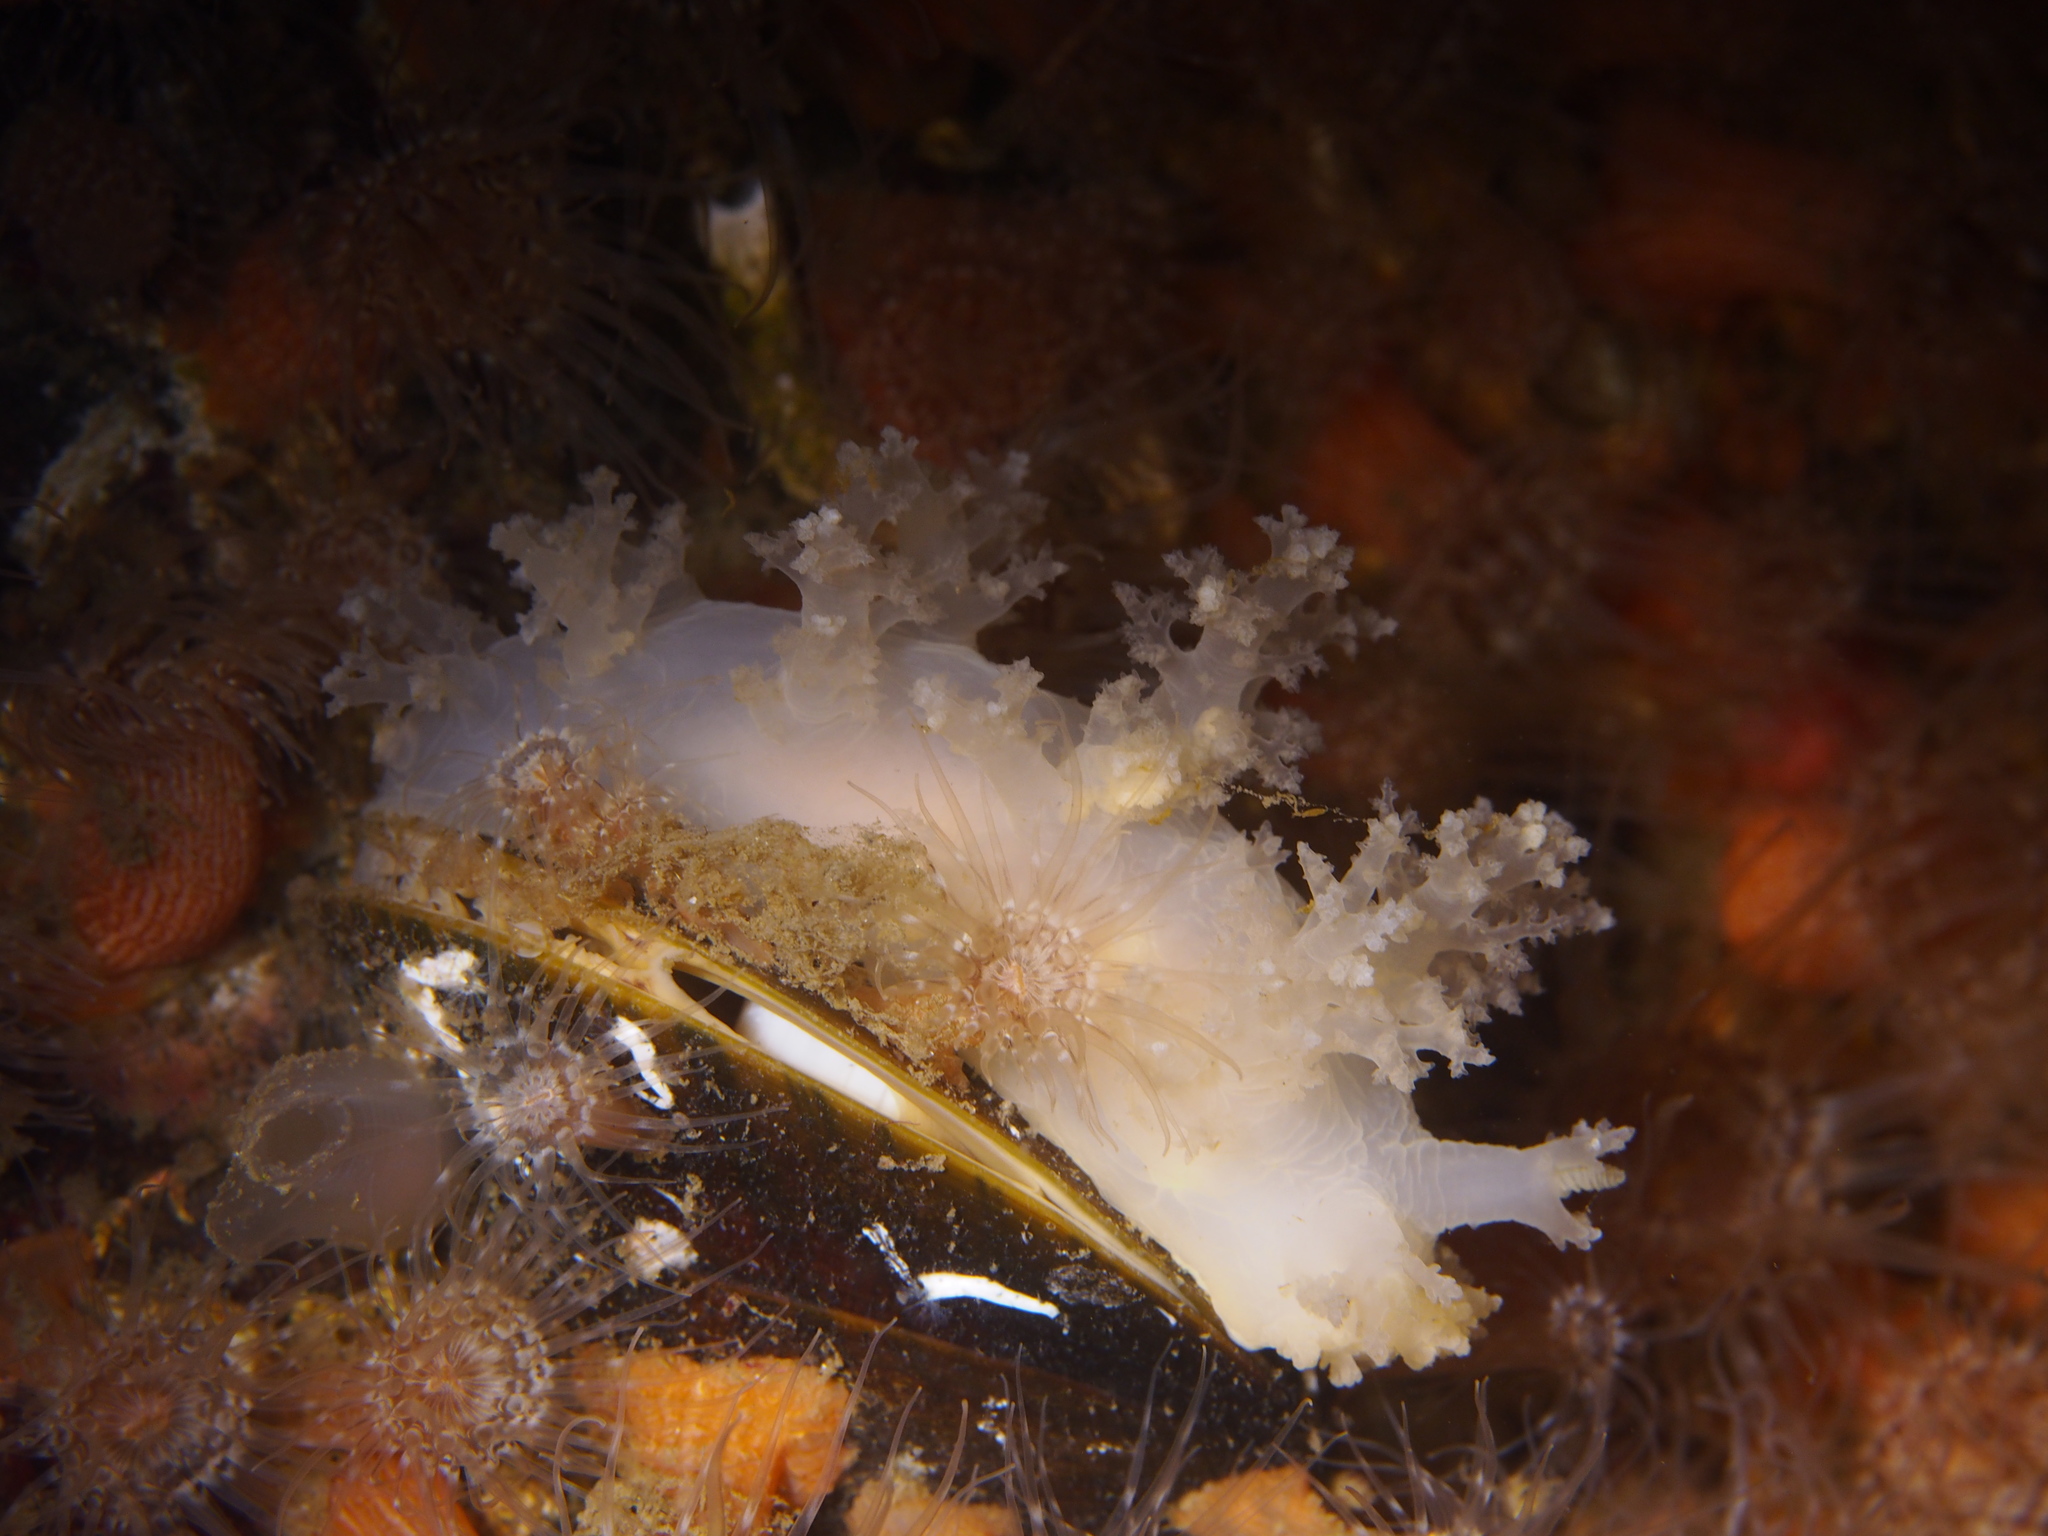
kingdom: Animalia
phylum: Mollusca
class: Gastropoda
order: Nudibranchia
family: Dendronotidae
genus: Dendronotus
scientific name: Dendronotus lacteus
